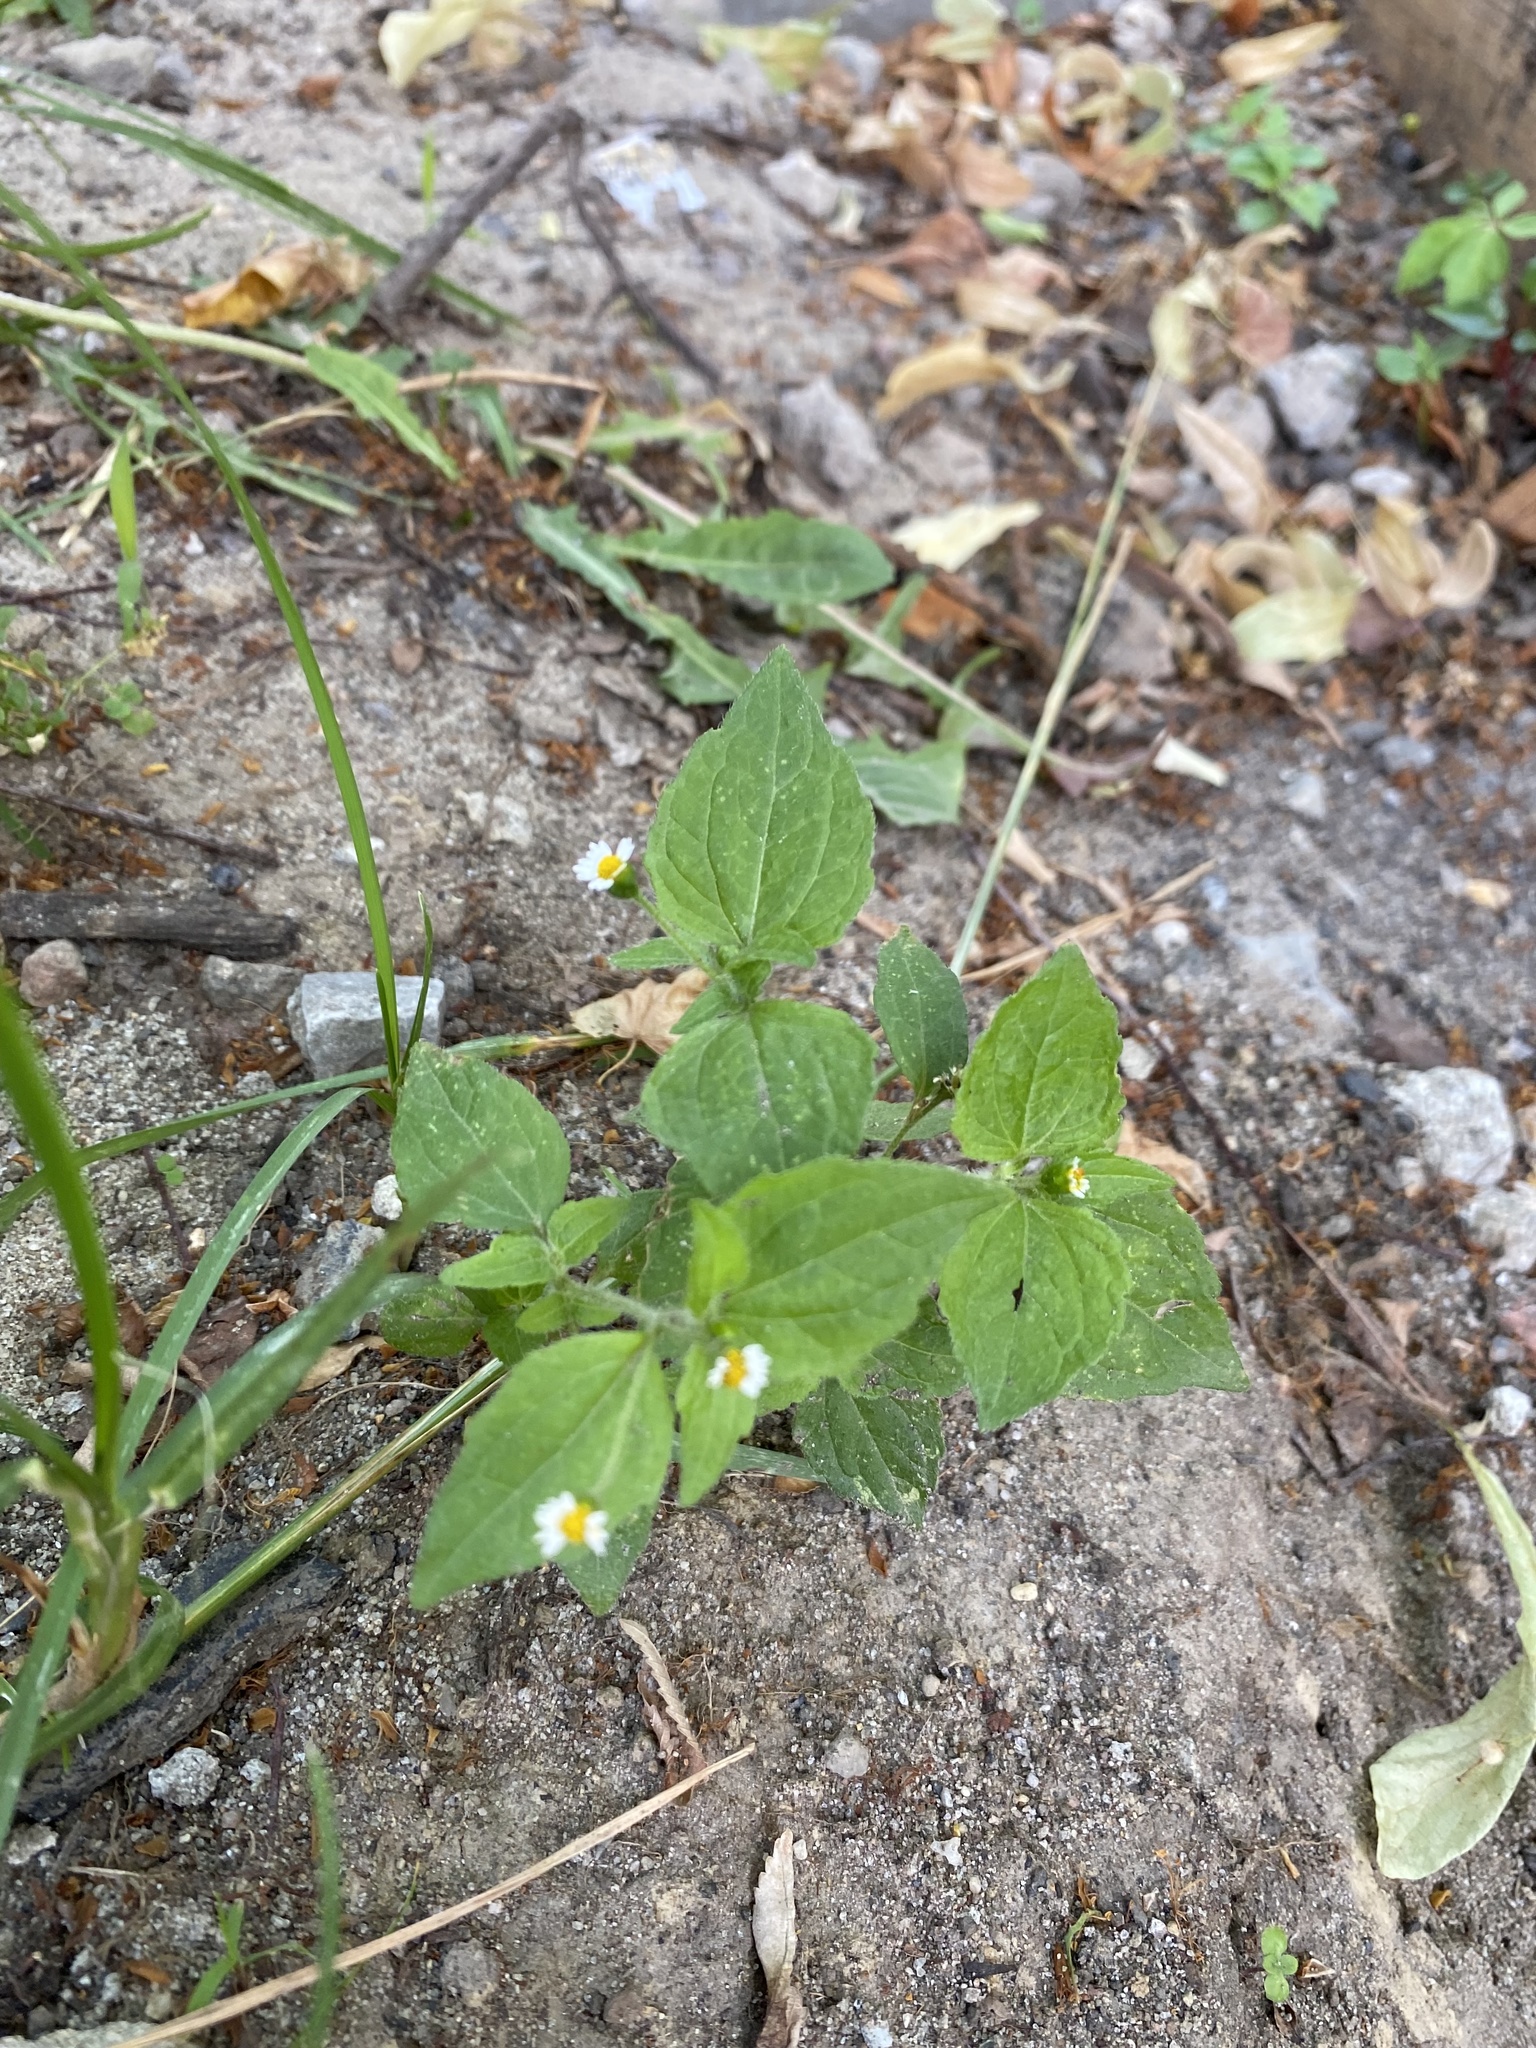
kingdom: Plantae
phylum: Tracheophyta
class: Magnoliopsida
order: Asterales
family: Asteraceae
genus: Galinsoga
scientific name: Galinsoga quadriradiata
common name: Shaggy soldier
